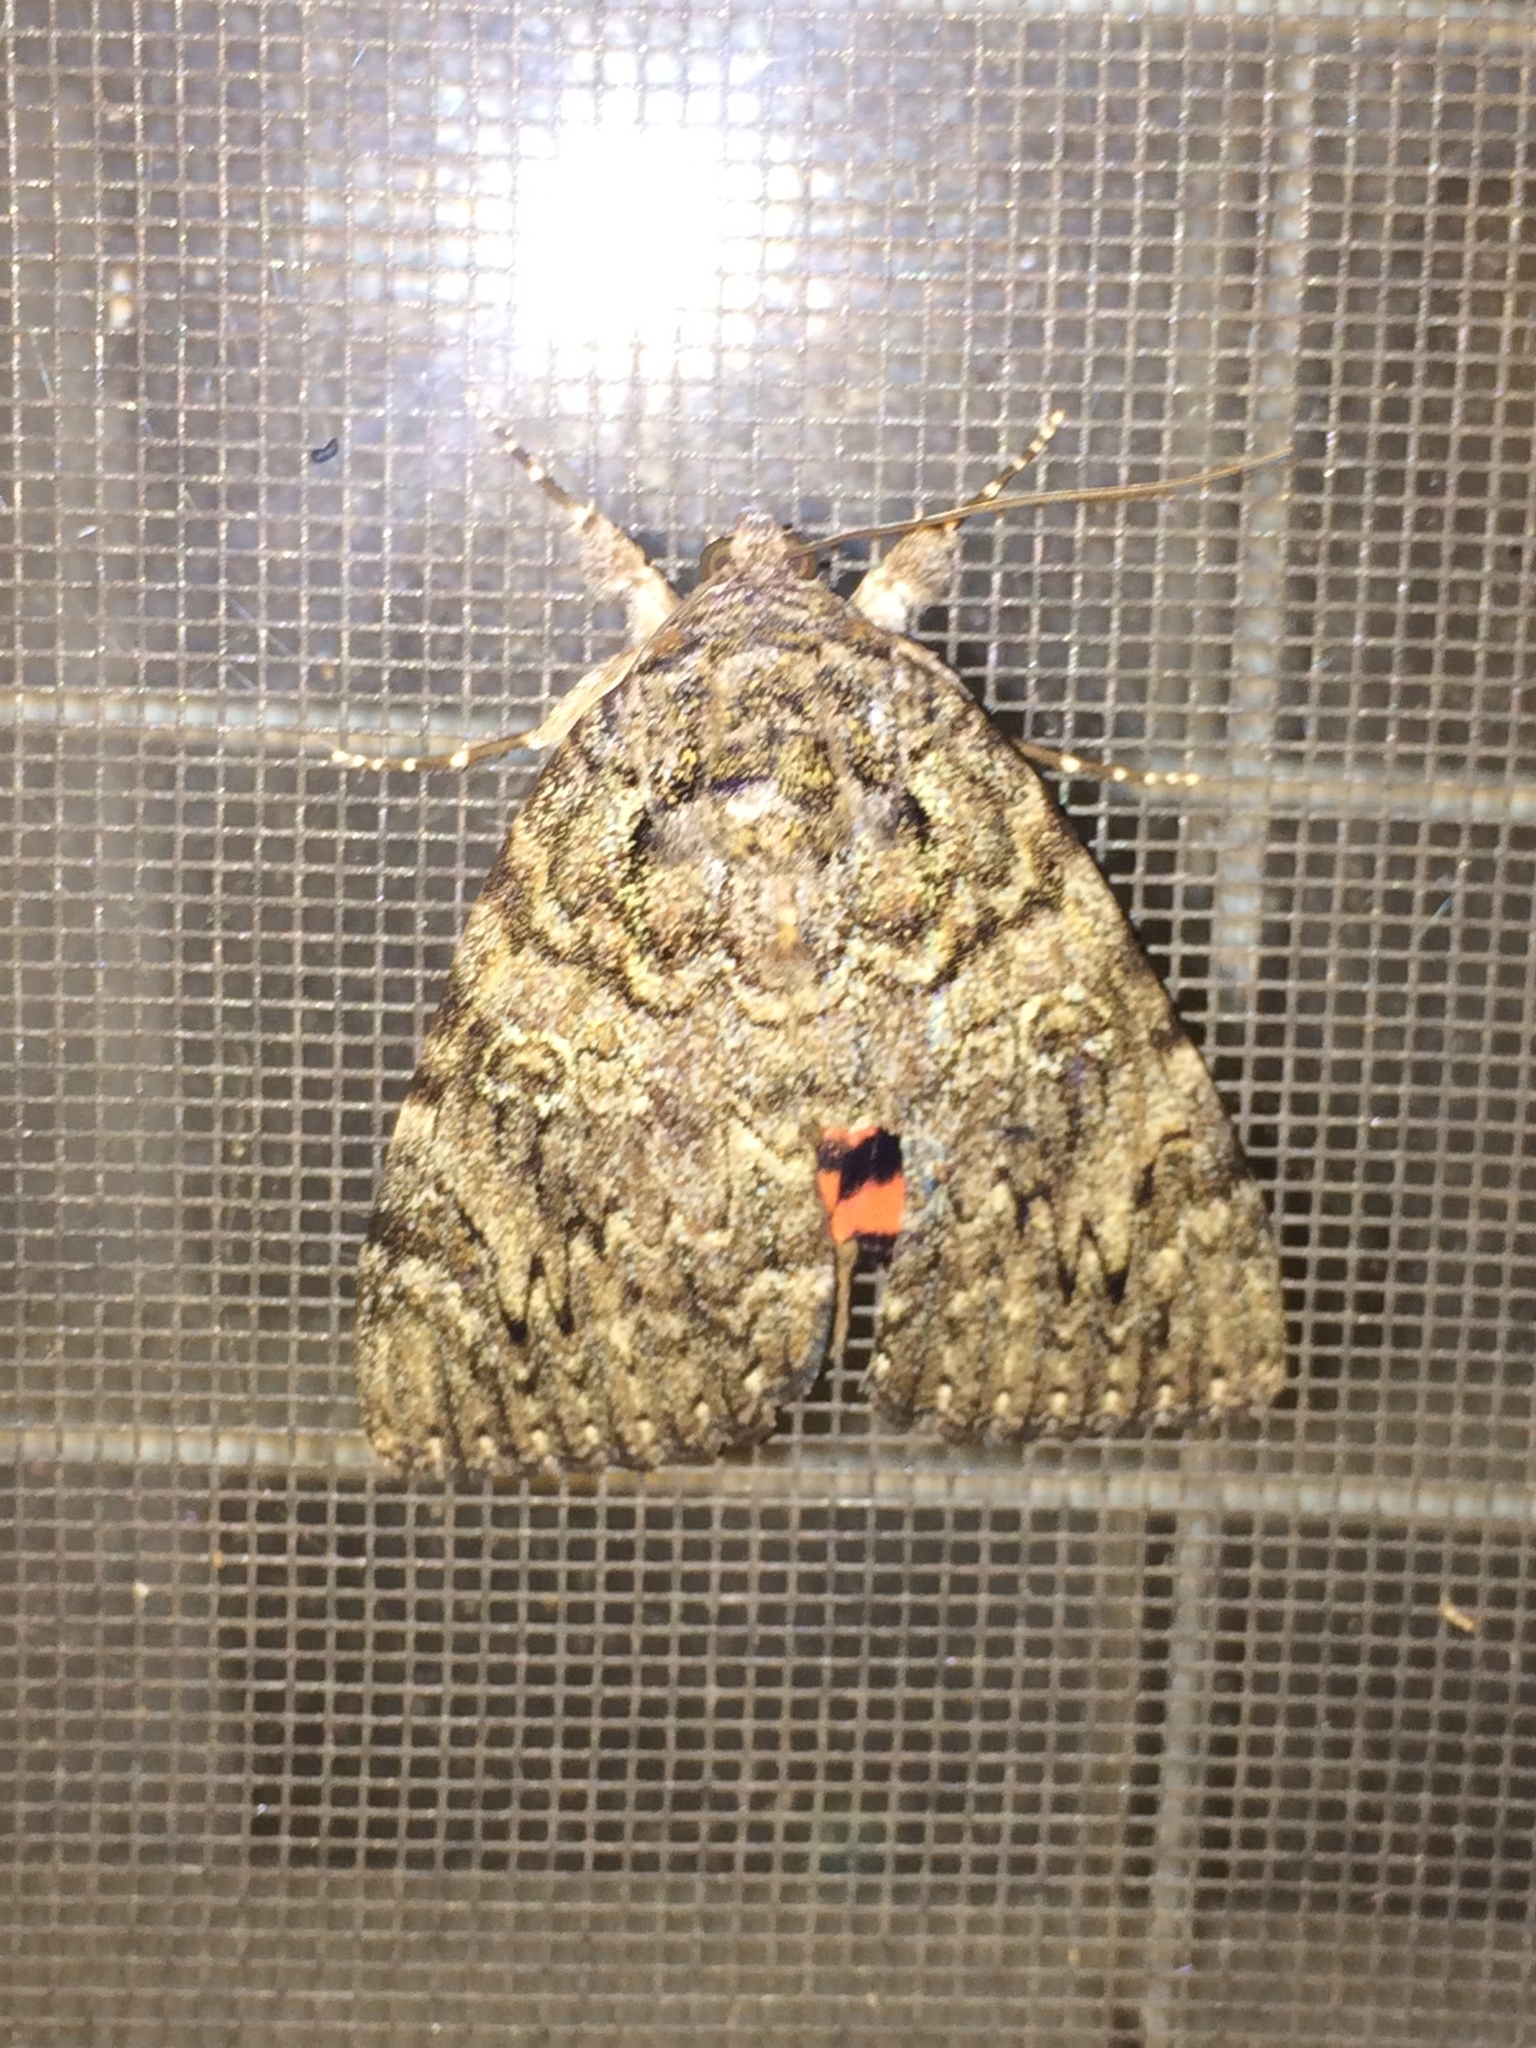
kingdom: Animalia
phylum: Arthropoda
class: Insecta
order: Lepidoptera
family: Erebidae
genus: Catocala
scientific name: Catocala umbrosa
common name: Umber underwing
